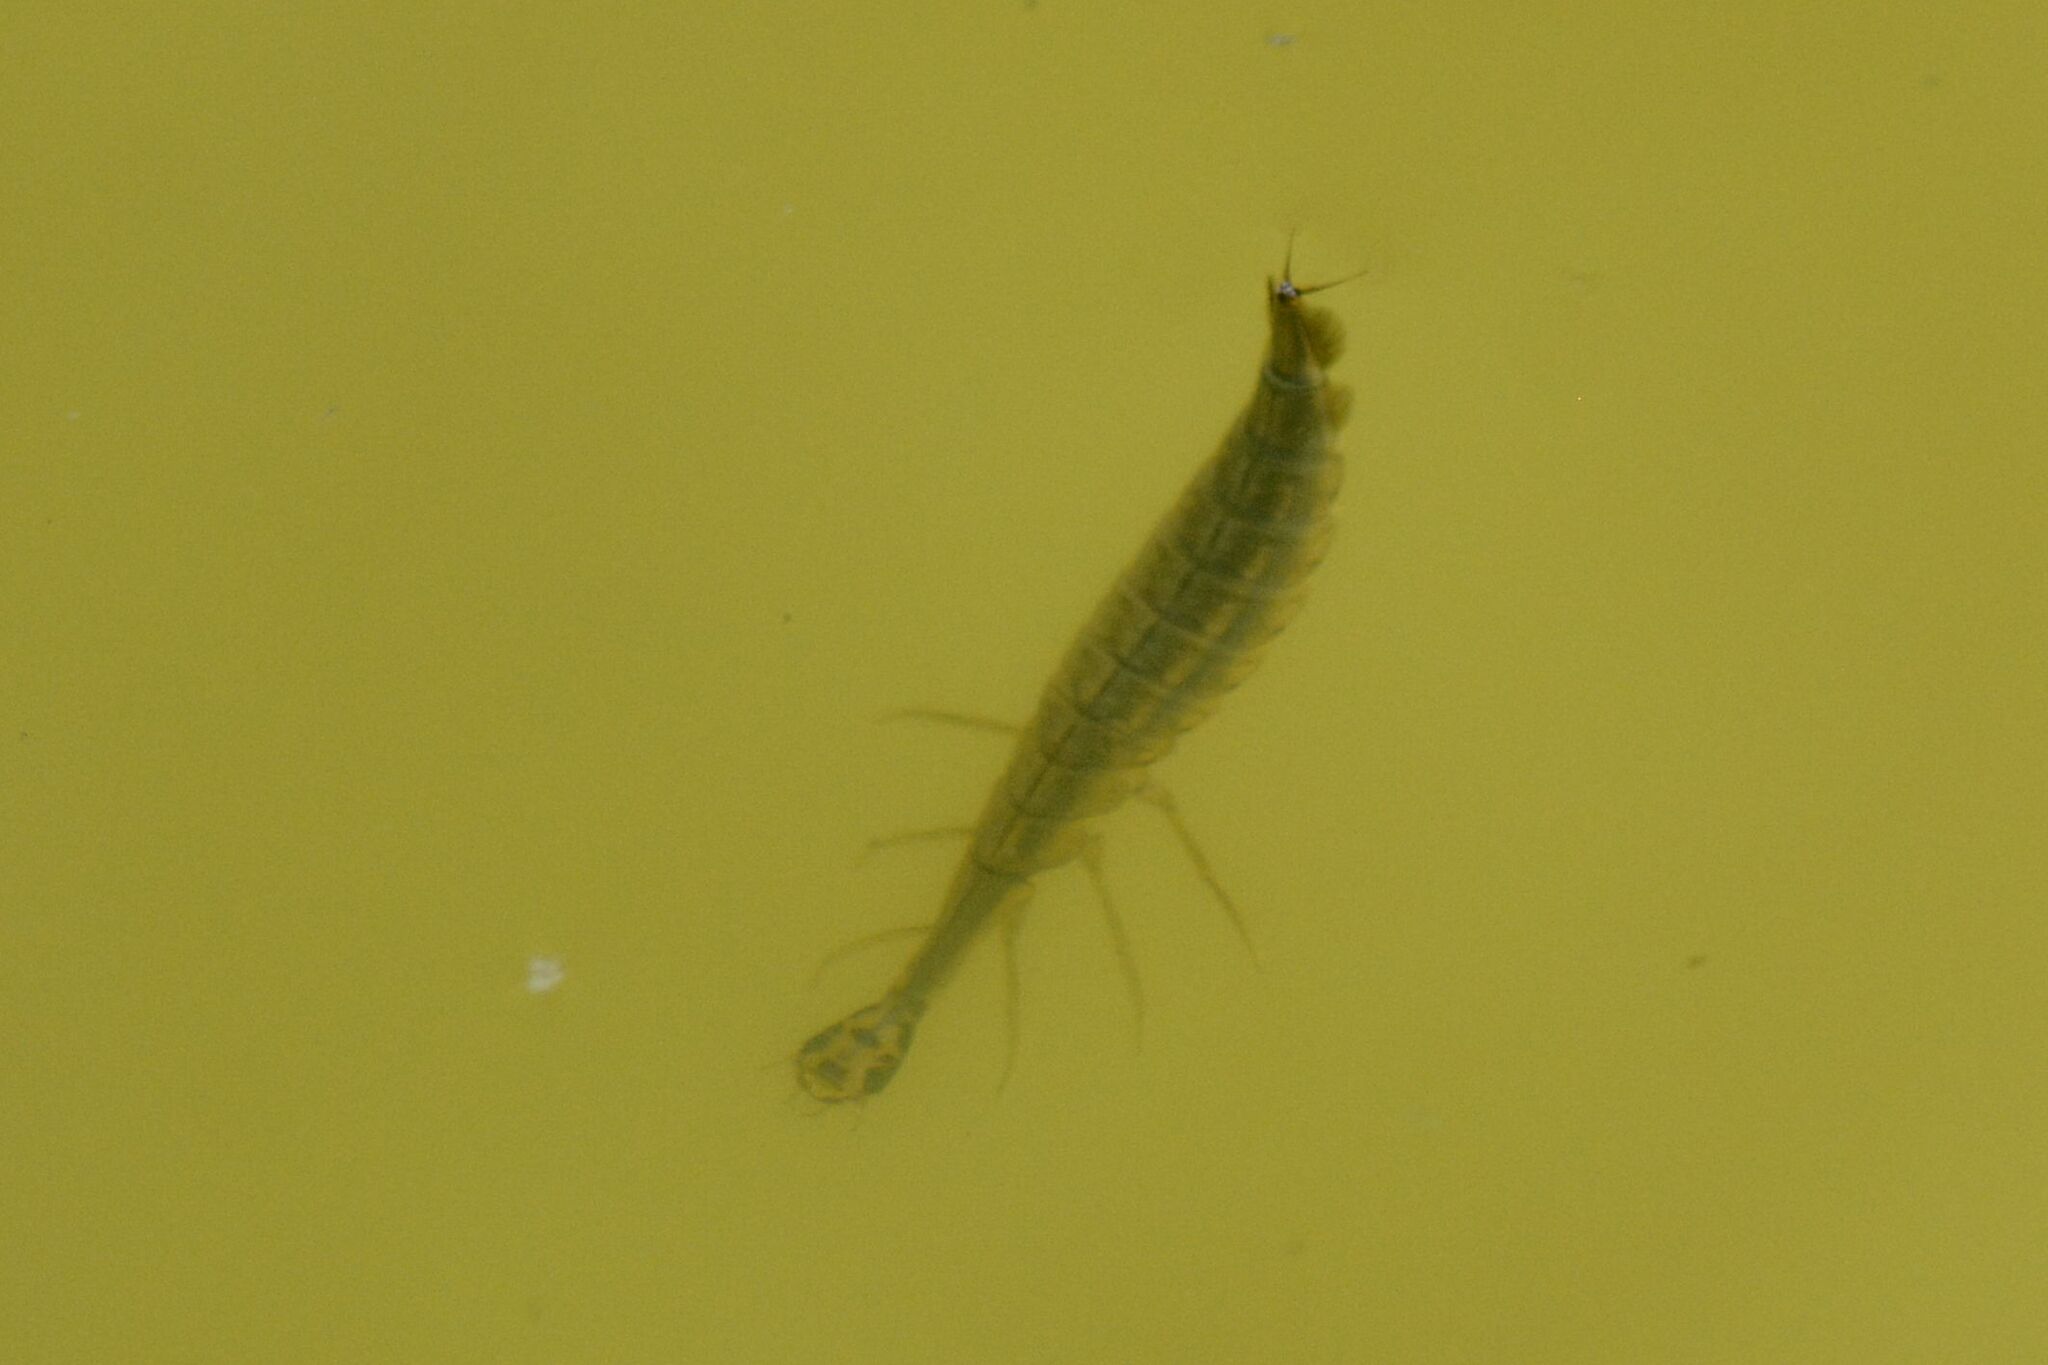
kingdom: Animalia
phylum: Arthropoda
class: Insecta
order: Coleoptera
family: Dytiscidae
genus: Acilius
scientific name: Acilius sulcatus
